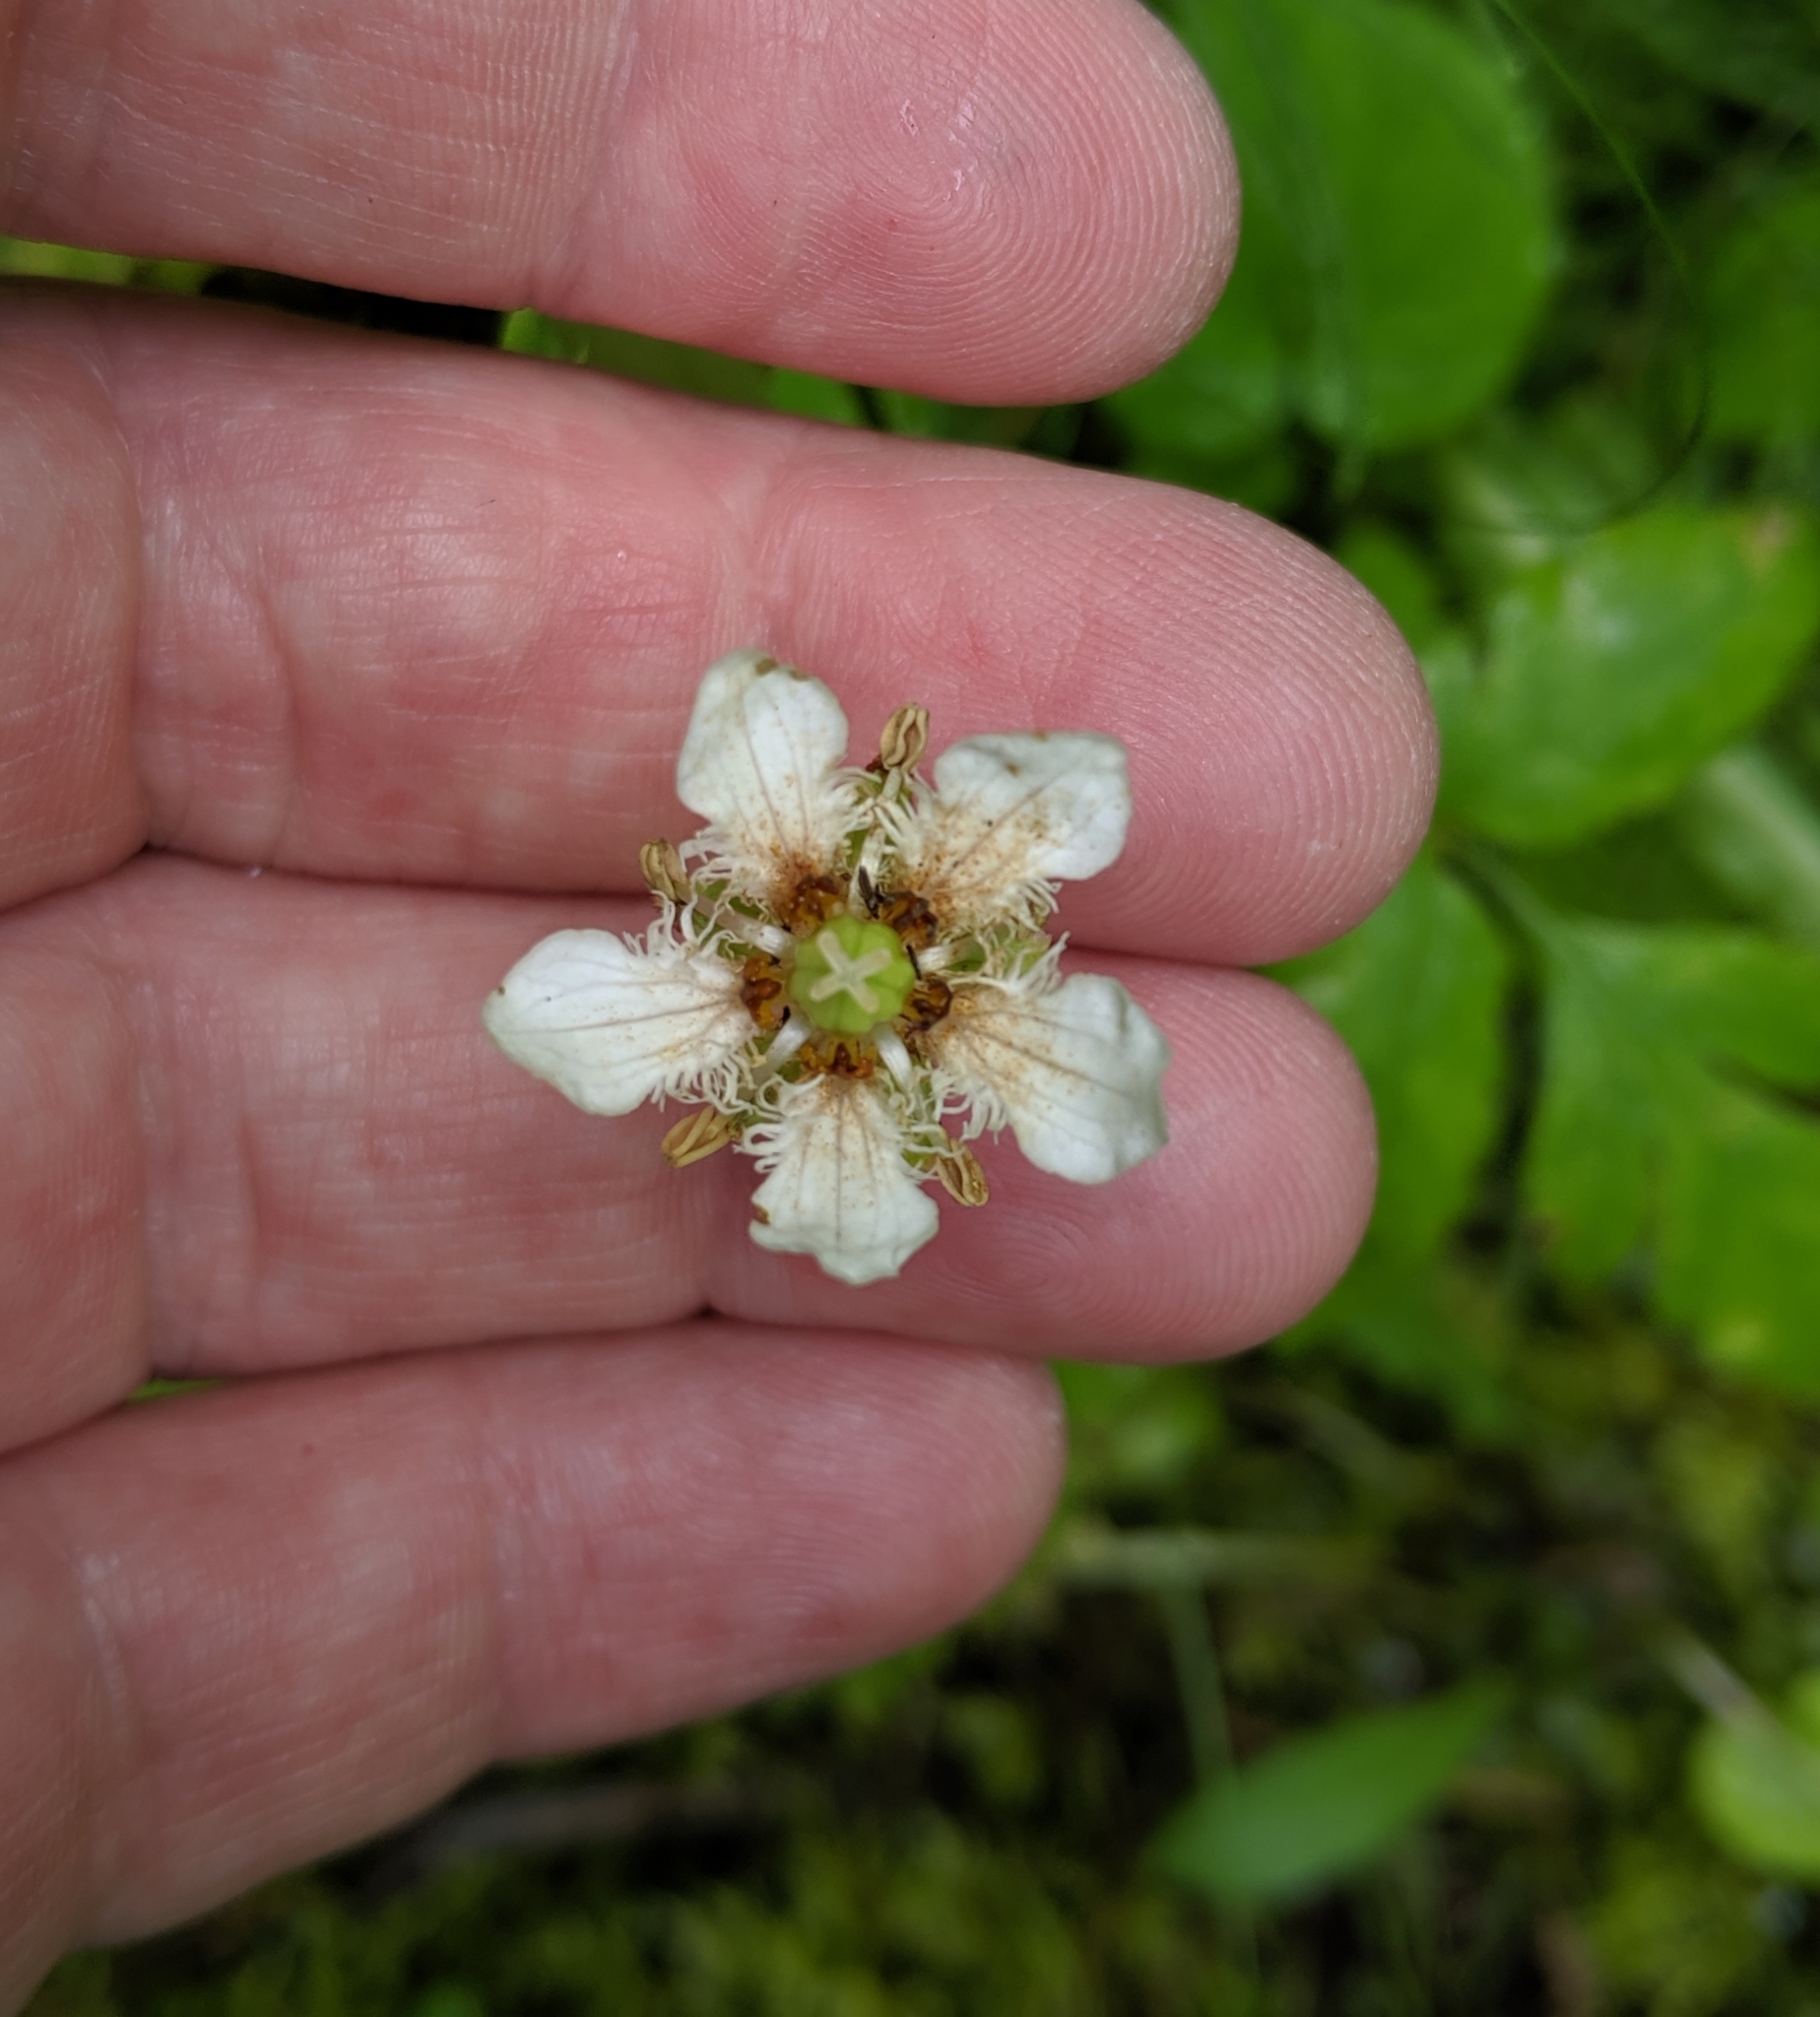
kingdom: Plantae
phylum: Tracheophyta
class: Magnoliopsida
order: Celastrales
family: Parnassiaceae
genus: Parnassia
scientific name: Parnassia fimbriata
